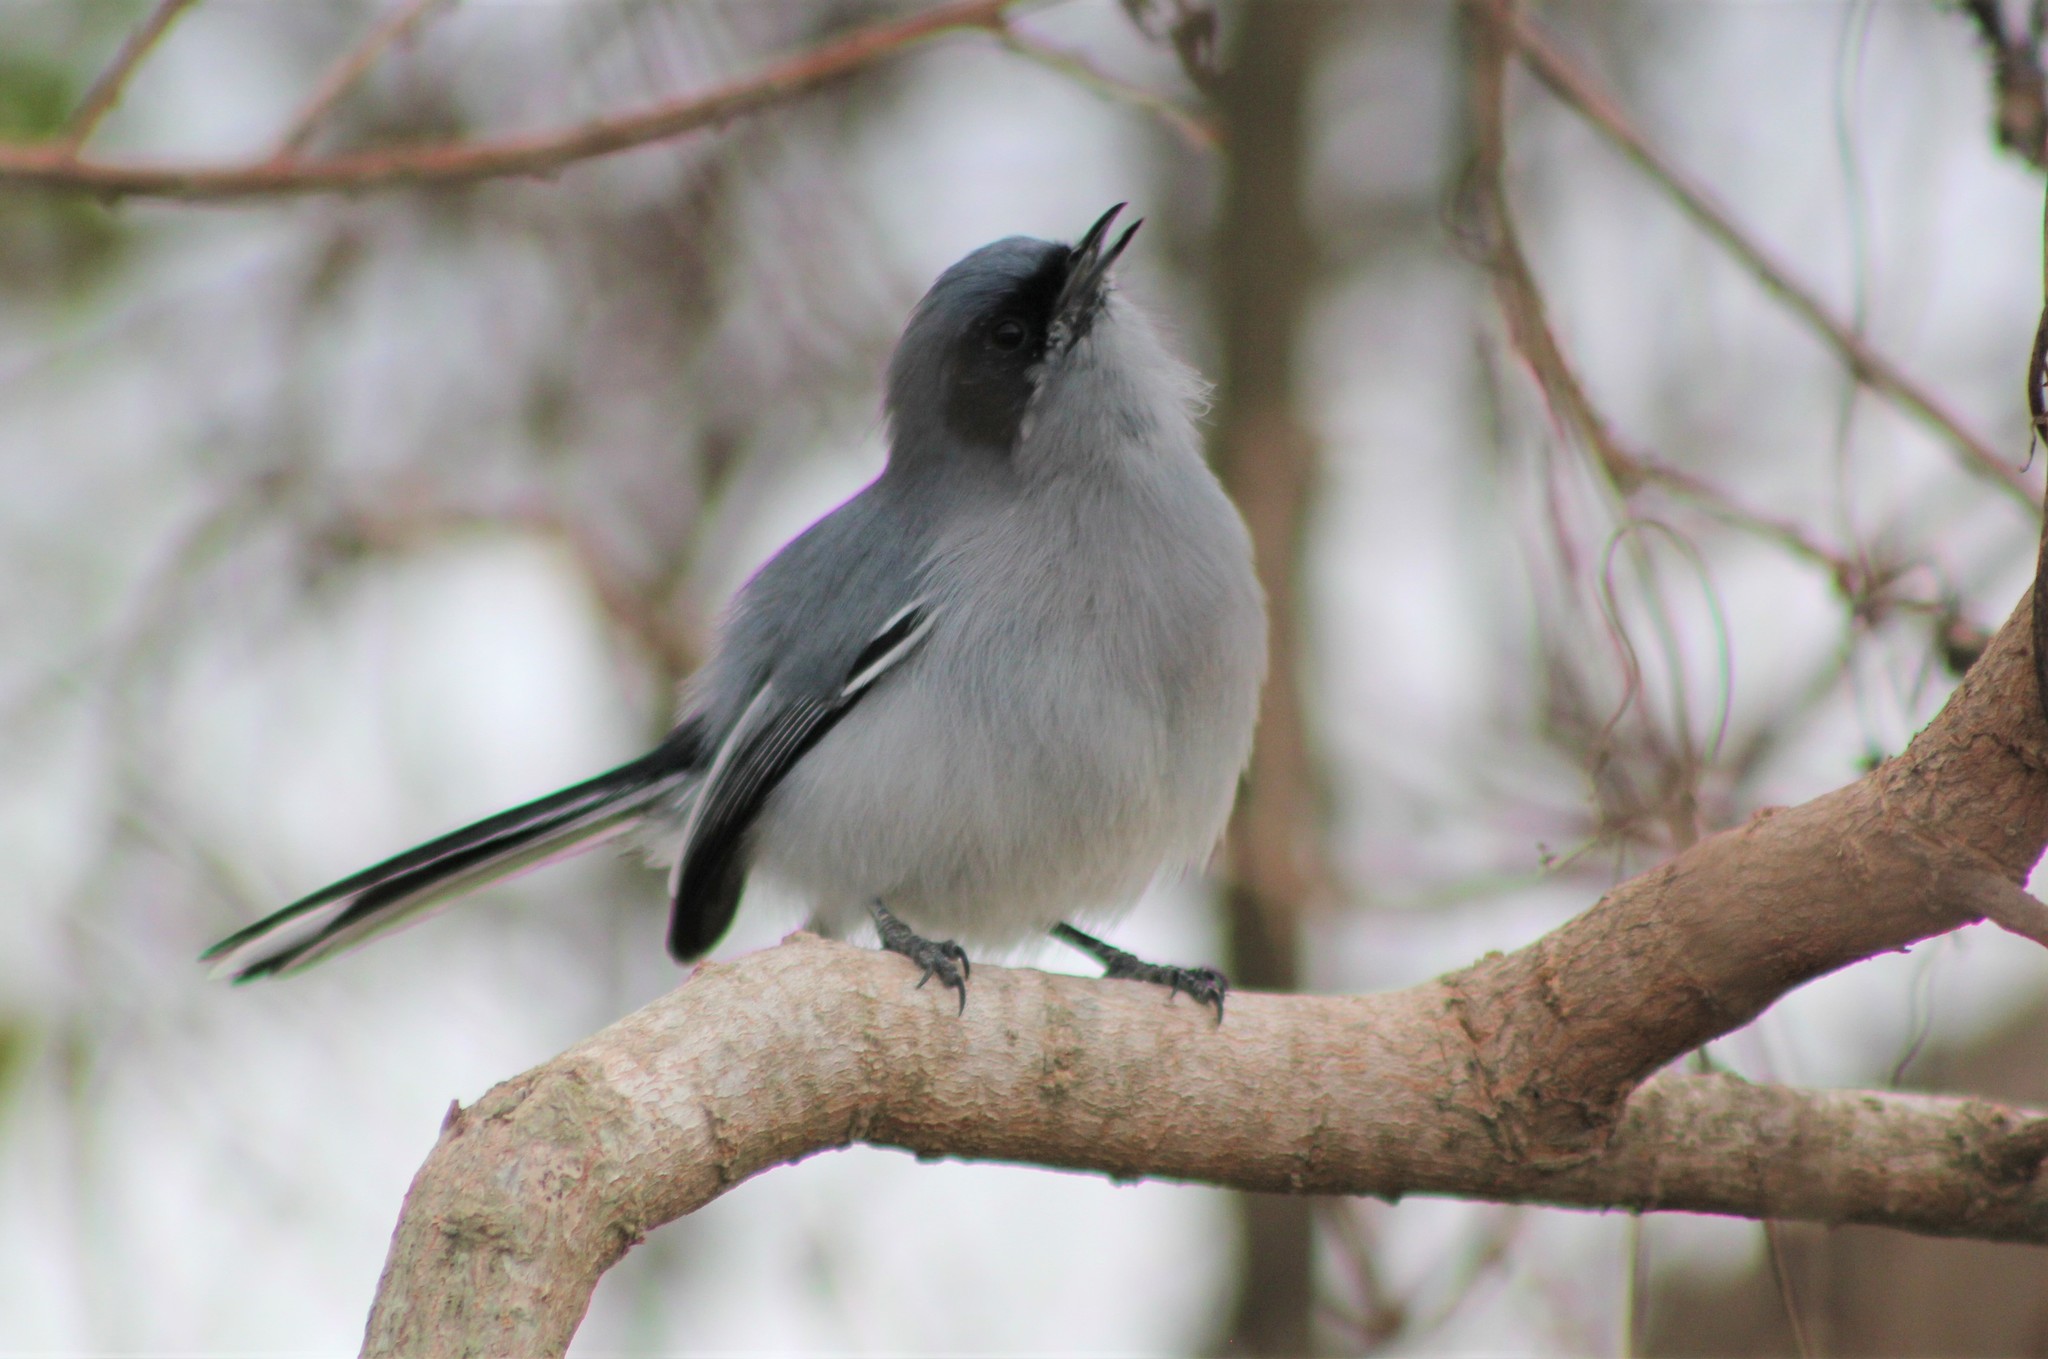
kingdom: Animalia
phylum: Chordata
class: Aves
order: Passeriformes
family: Polioptilidae
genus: Polioptila
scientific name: Polioptila dumicola
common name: Masked gnatcatcher
